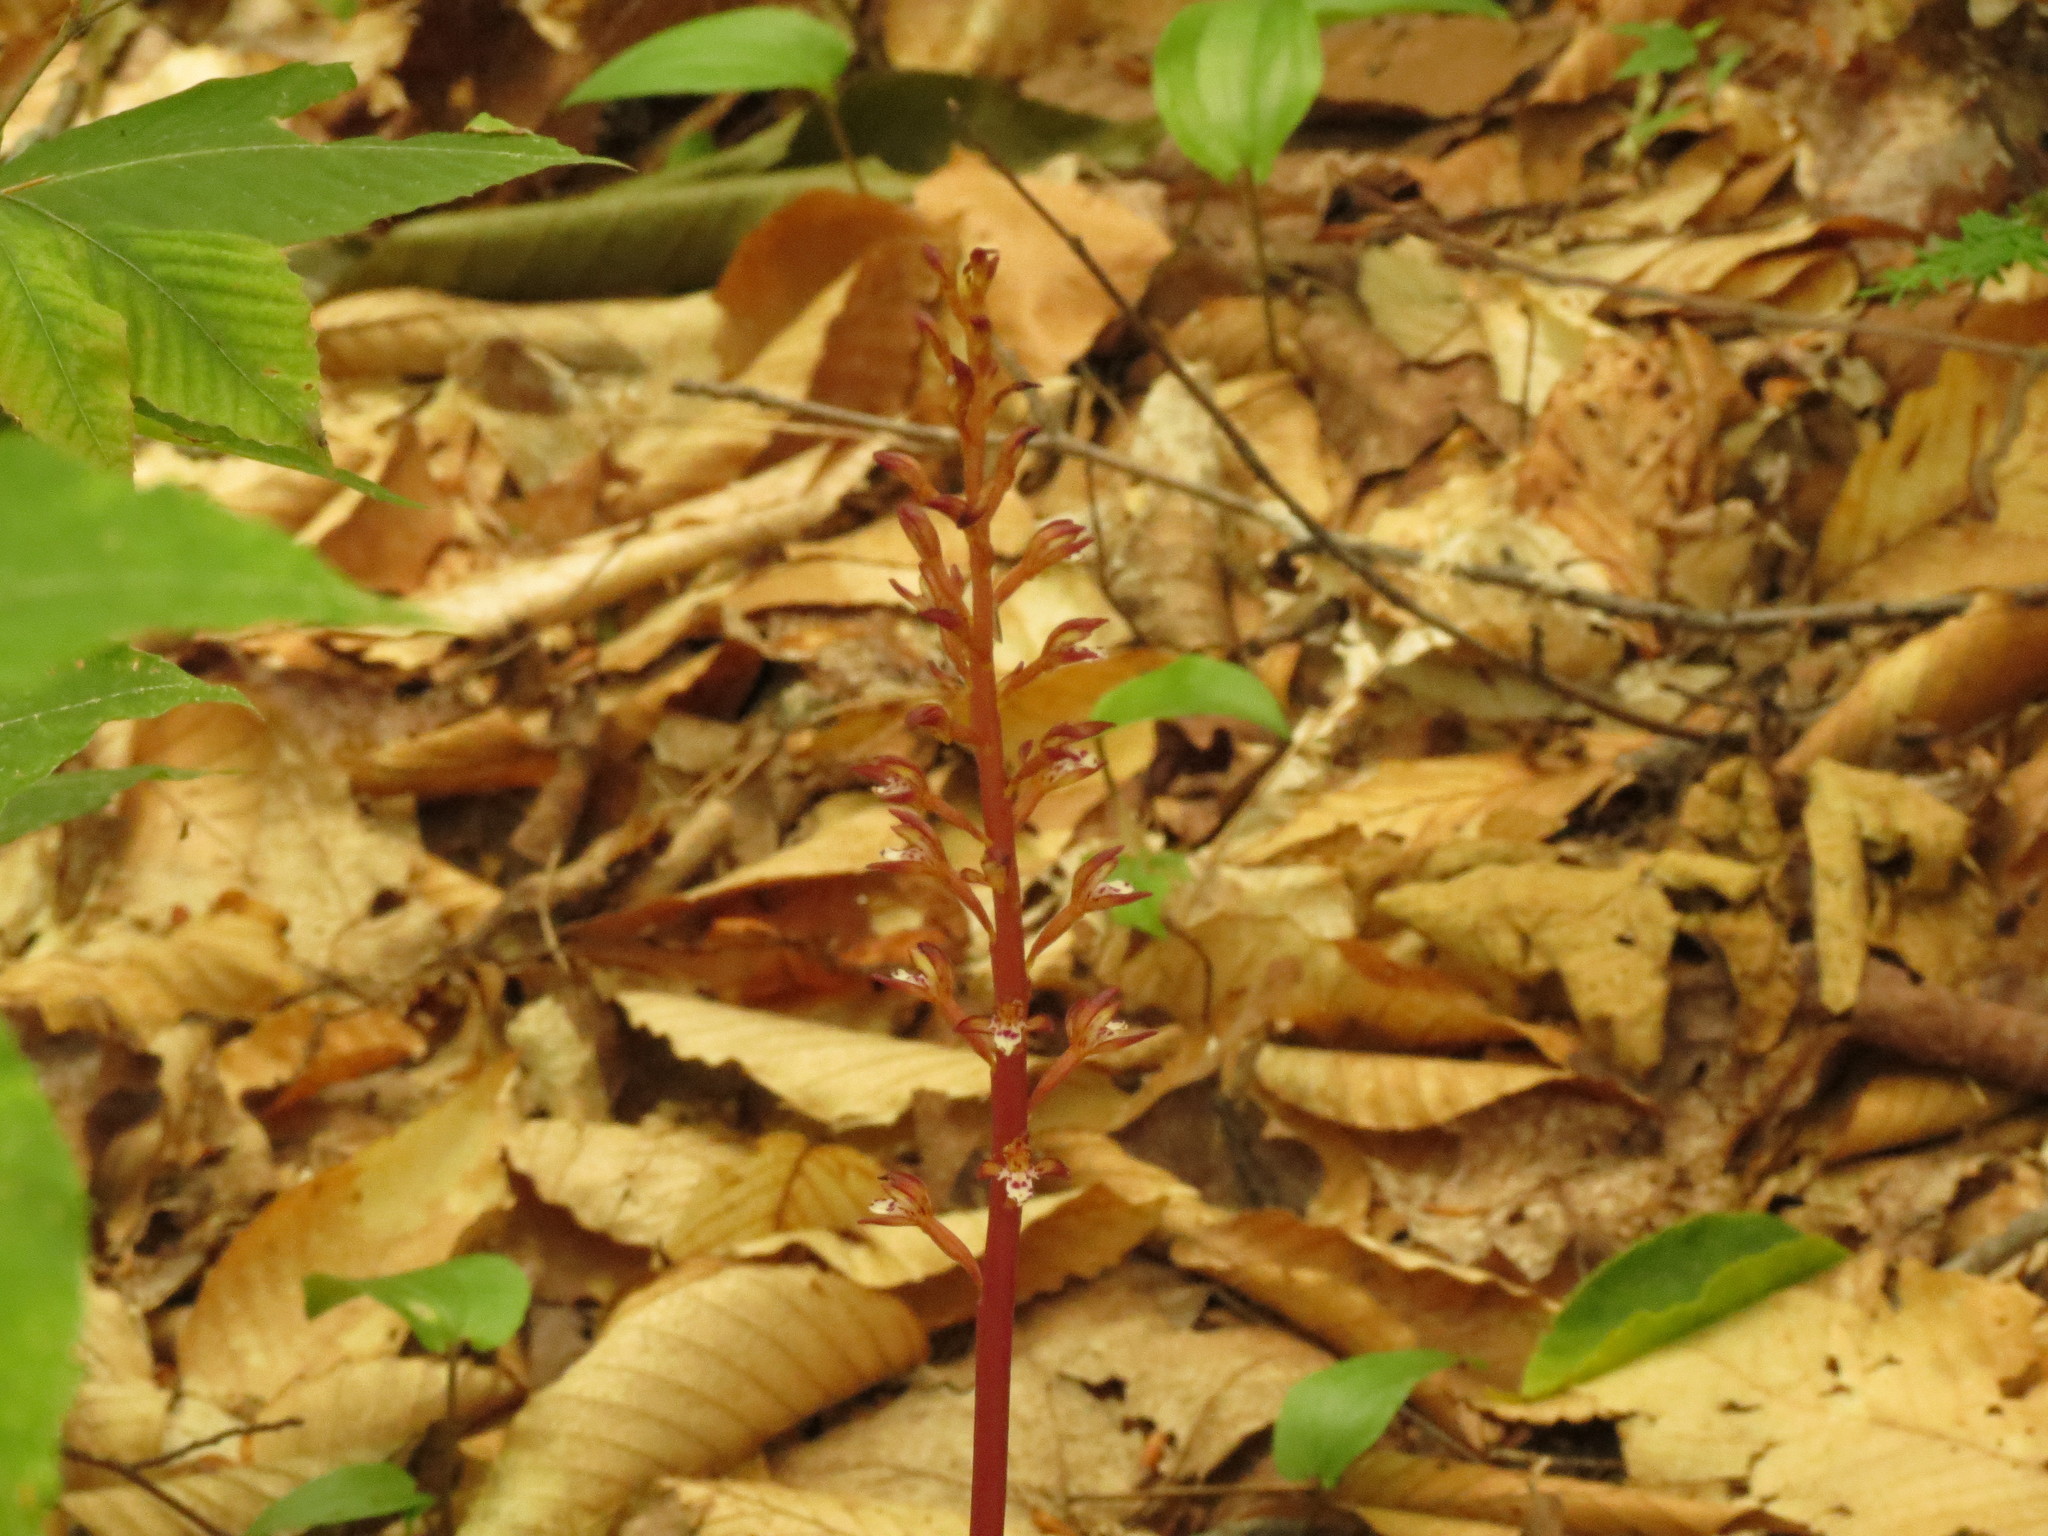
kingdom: Plantae
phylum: Tracheophyta
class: Liliopsida
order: Asparagales
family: Orchidaceae
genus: Corallorhiza
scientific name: Corallorhiza maculata
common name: Spotted coralroot
